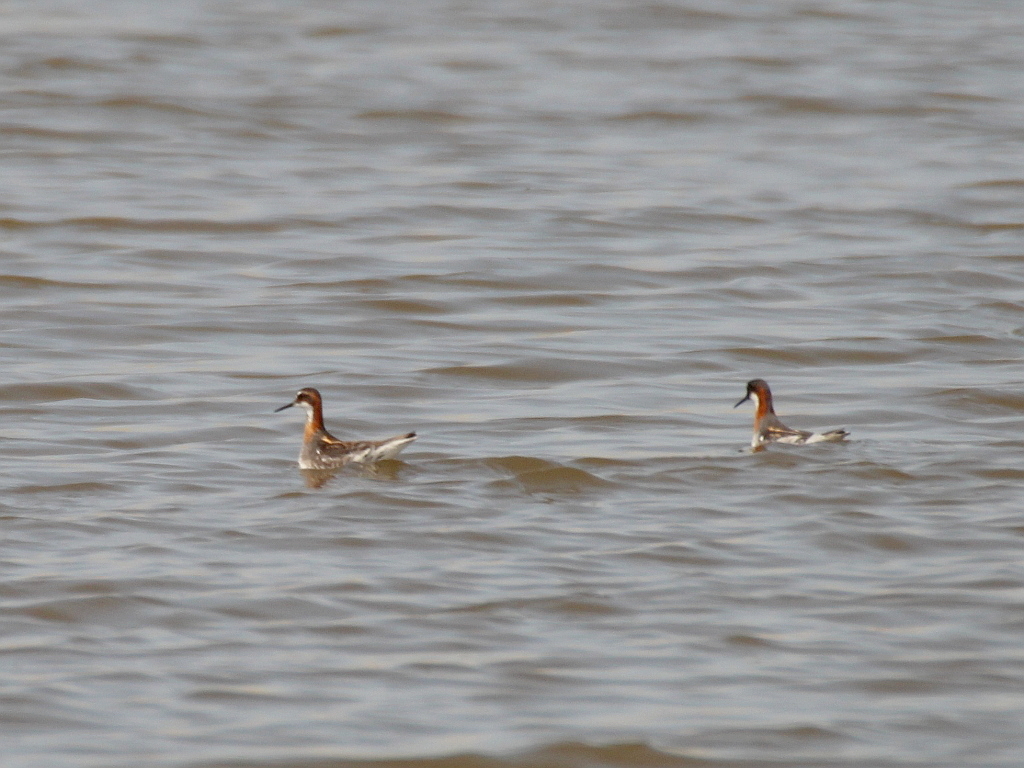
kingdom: Animalia
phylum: Chordata
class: Aves
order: Charadriiformes
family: Scolopacidae
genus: Phalaropus
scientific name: Phalaropus lobatus
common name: Red-necked phalarope
